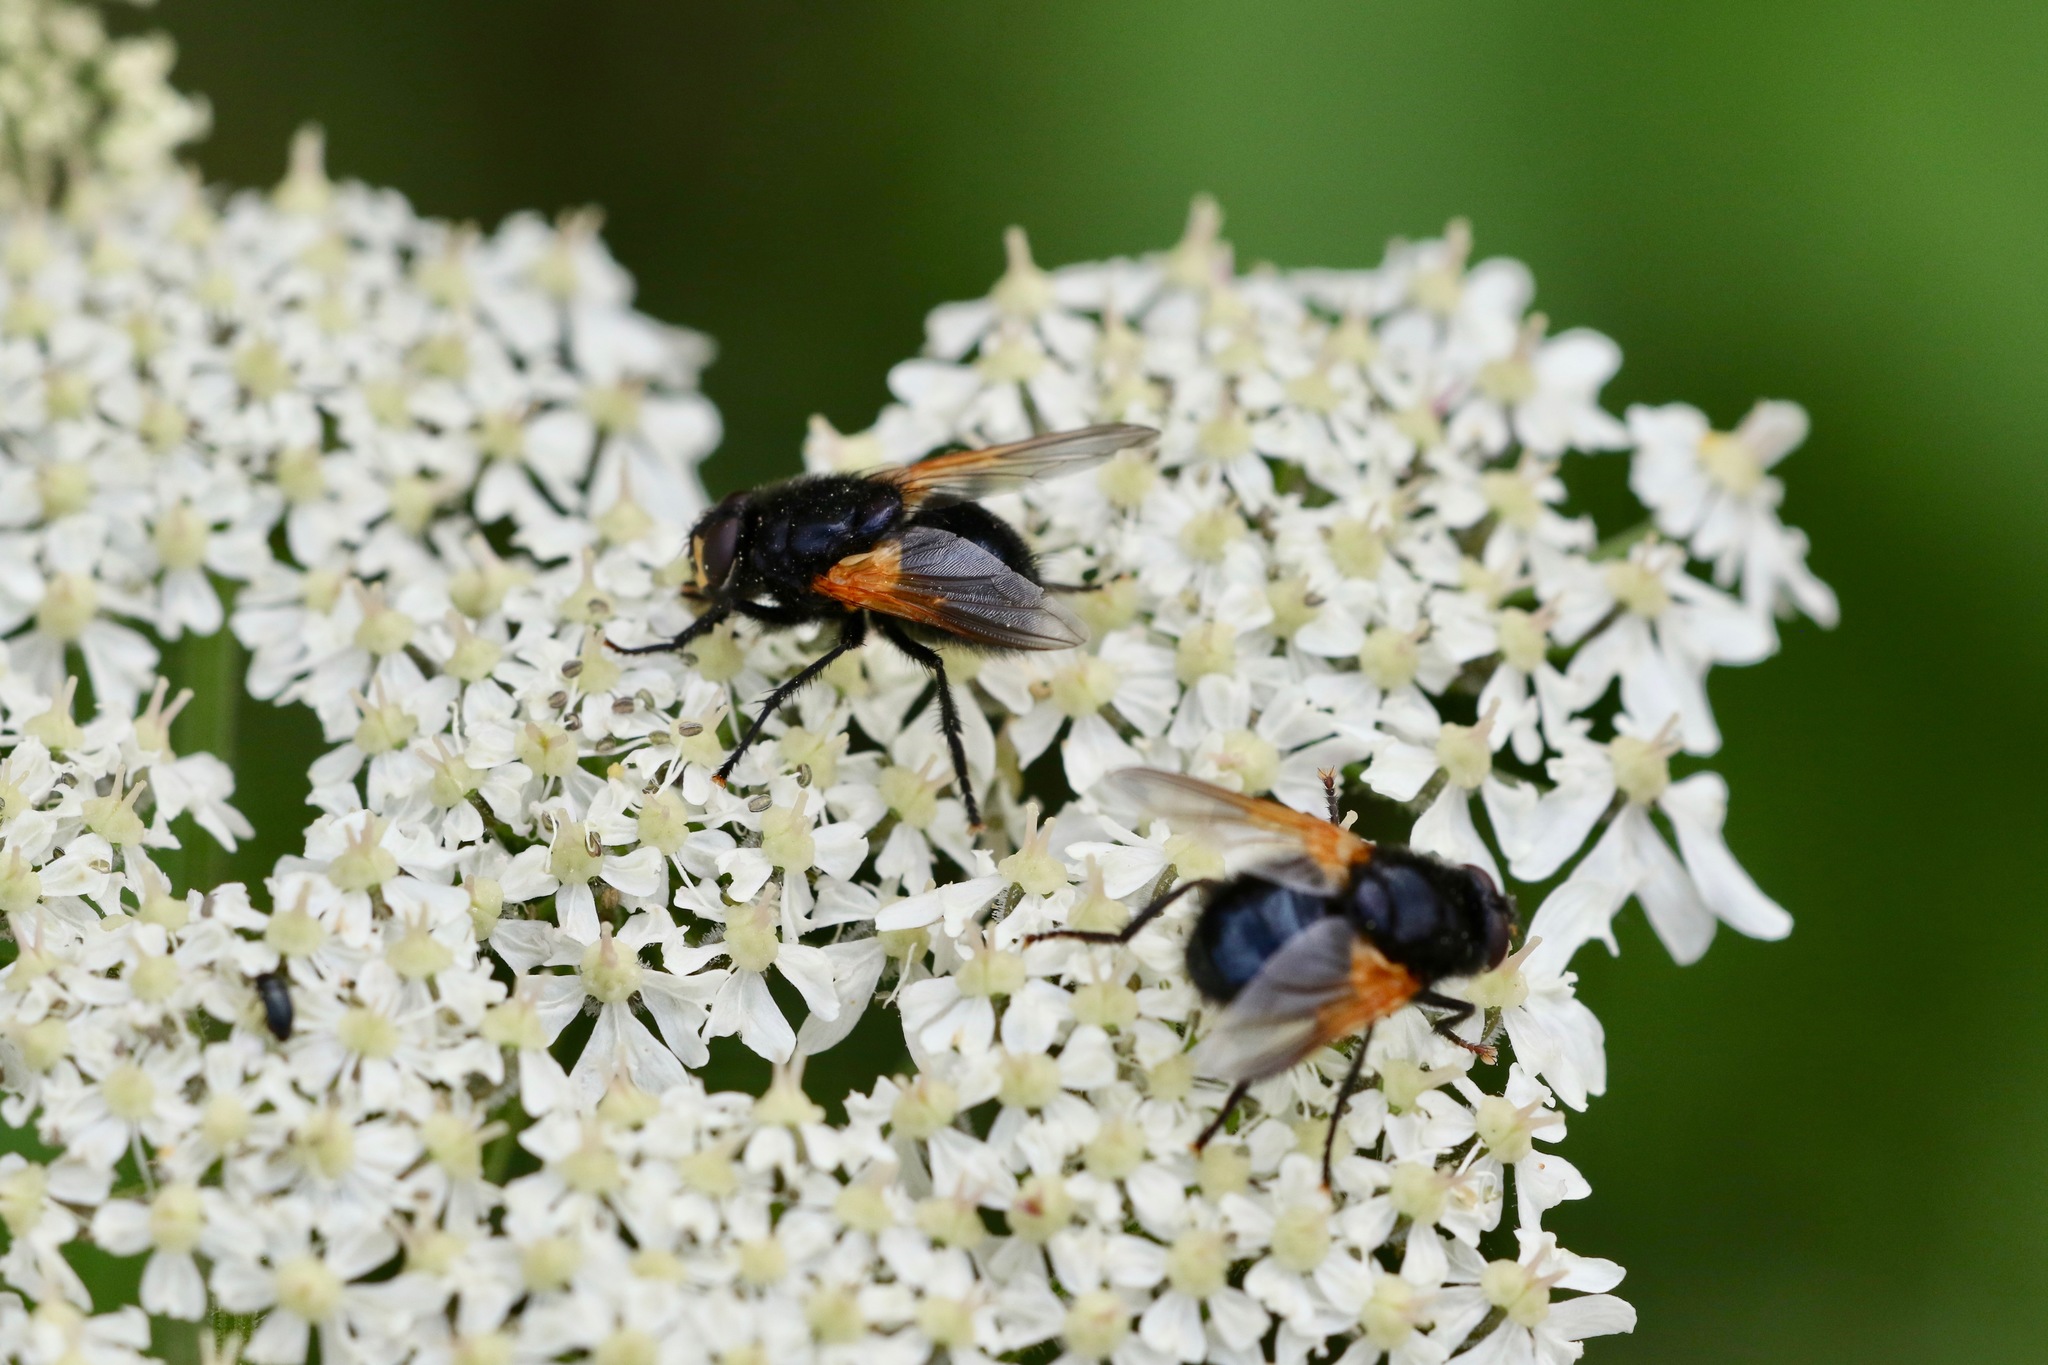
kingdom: Animalia
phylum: Arthropoda
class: Insecta
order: Diptera
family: Muscidae
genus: Mesembrina
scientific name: Mesembrina meridiana
